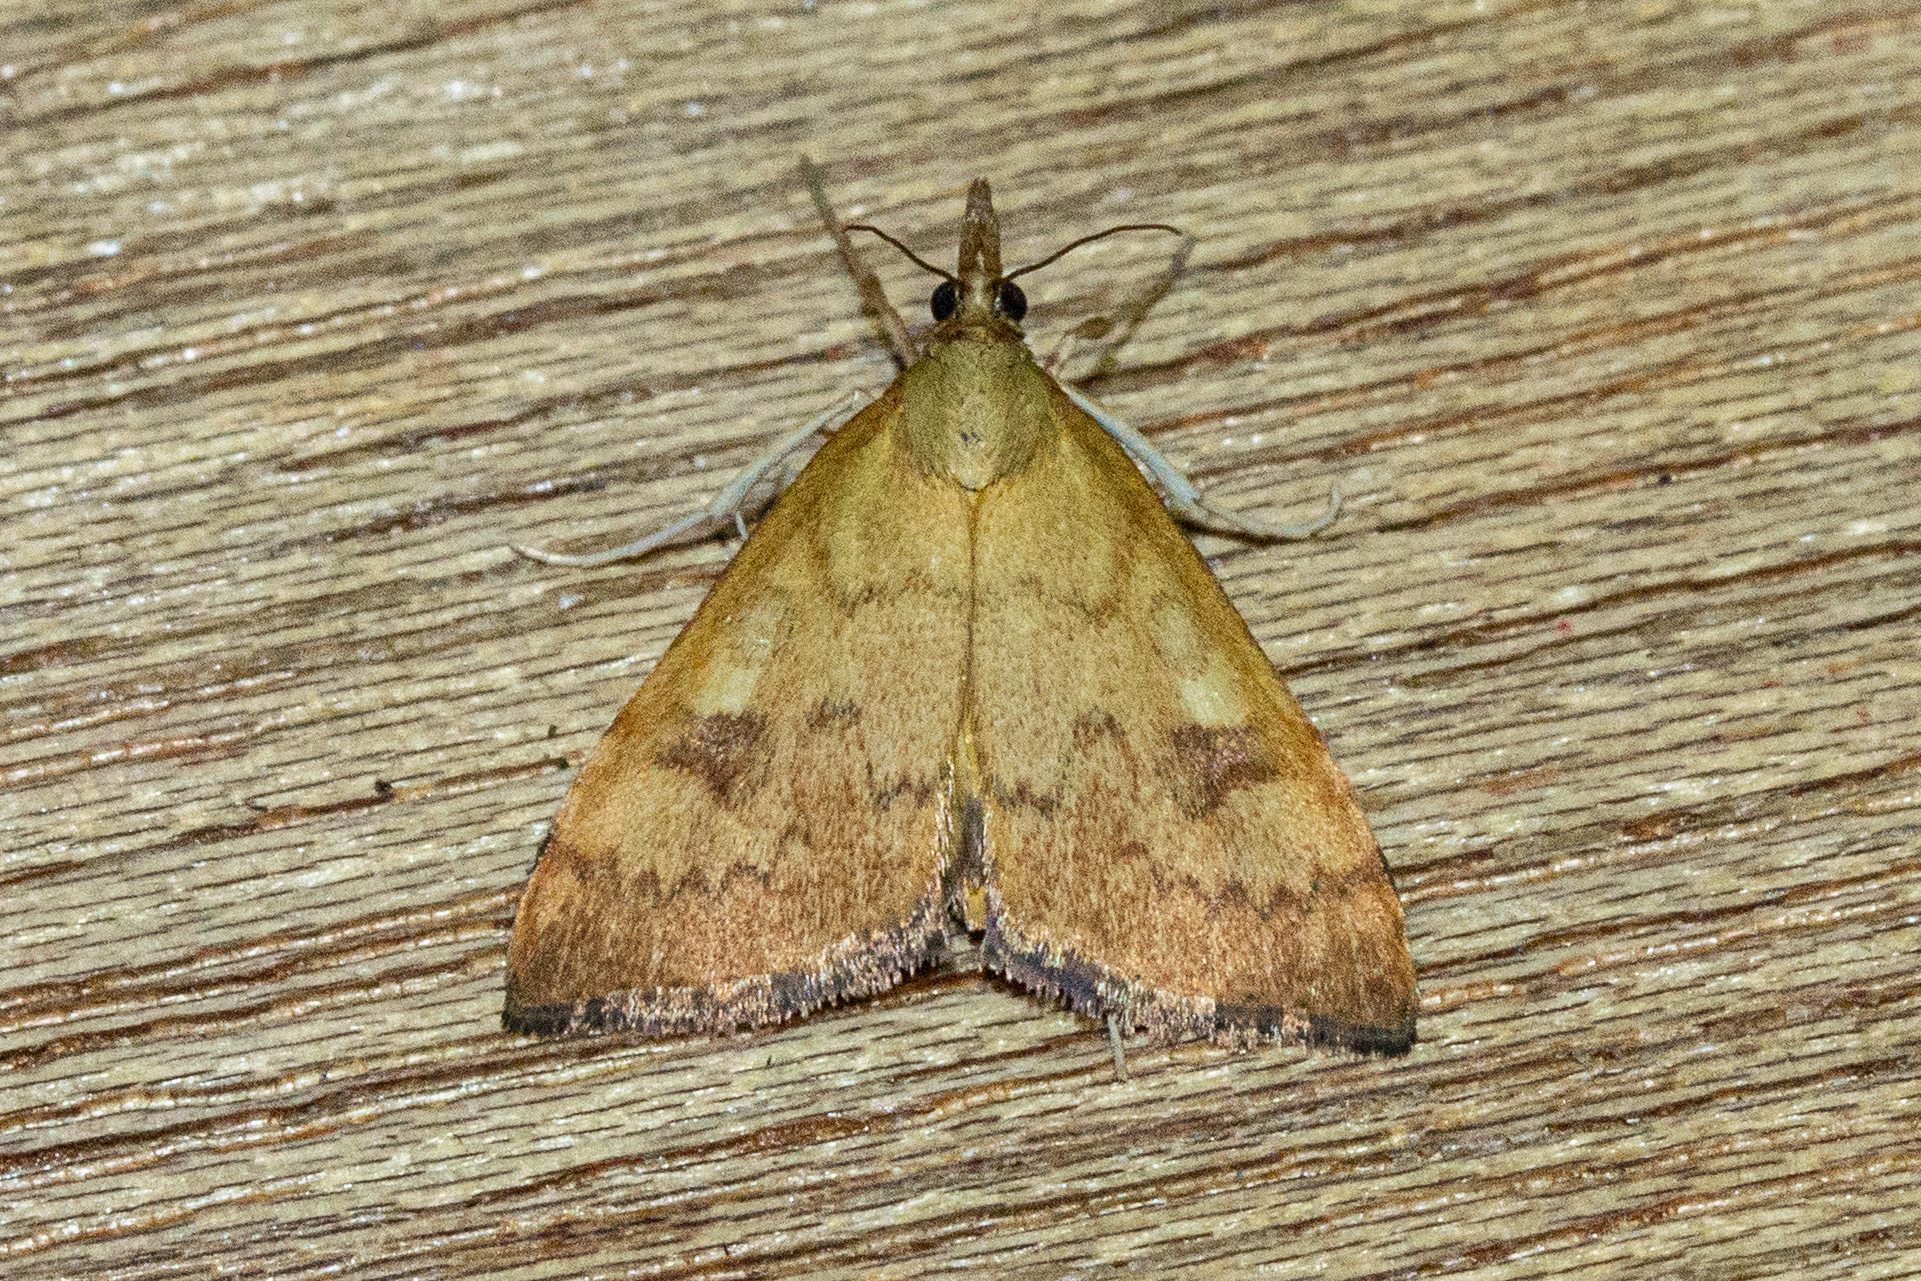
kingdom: Animalia
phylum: Arthropoda
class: Insecta
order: Lepidoptera
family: Crambidae
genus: Udea
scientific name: Udea Mnesictena flavidalis
